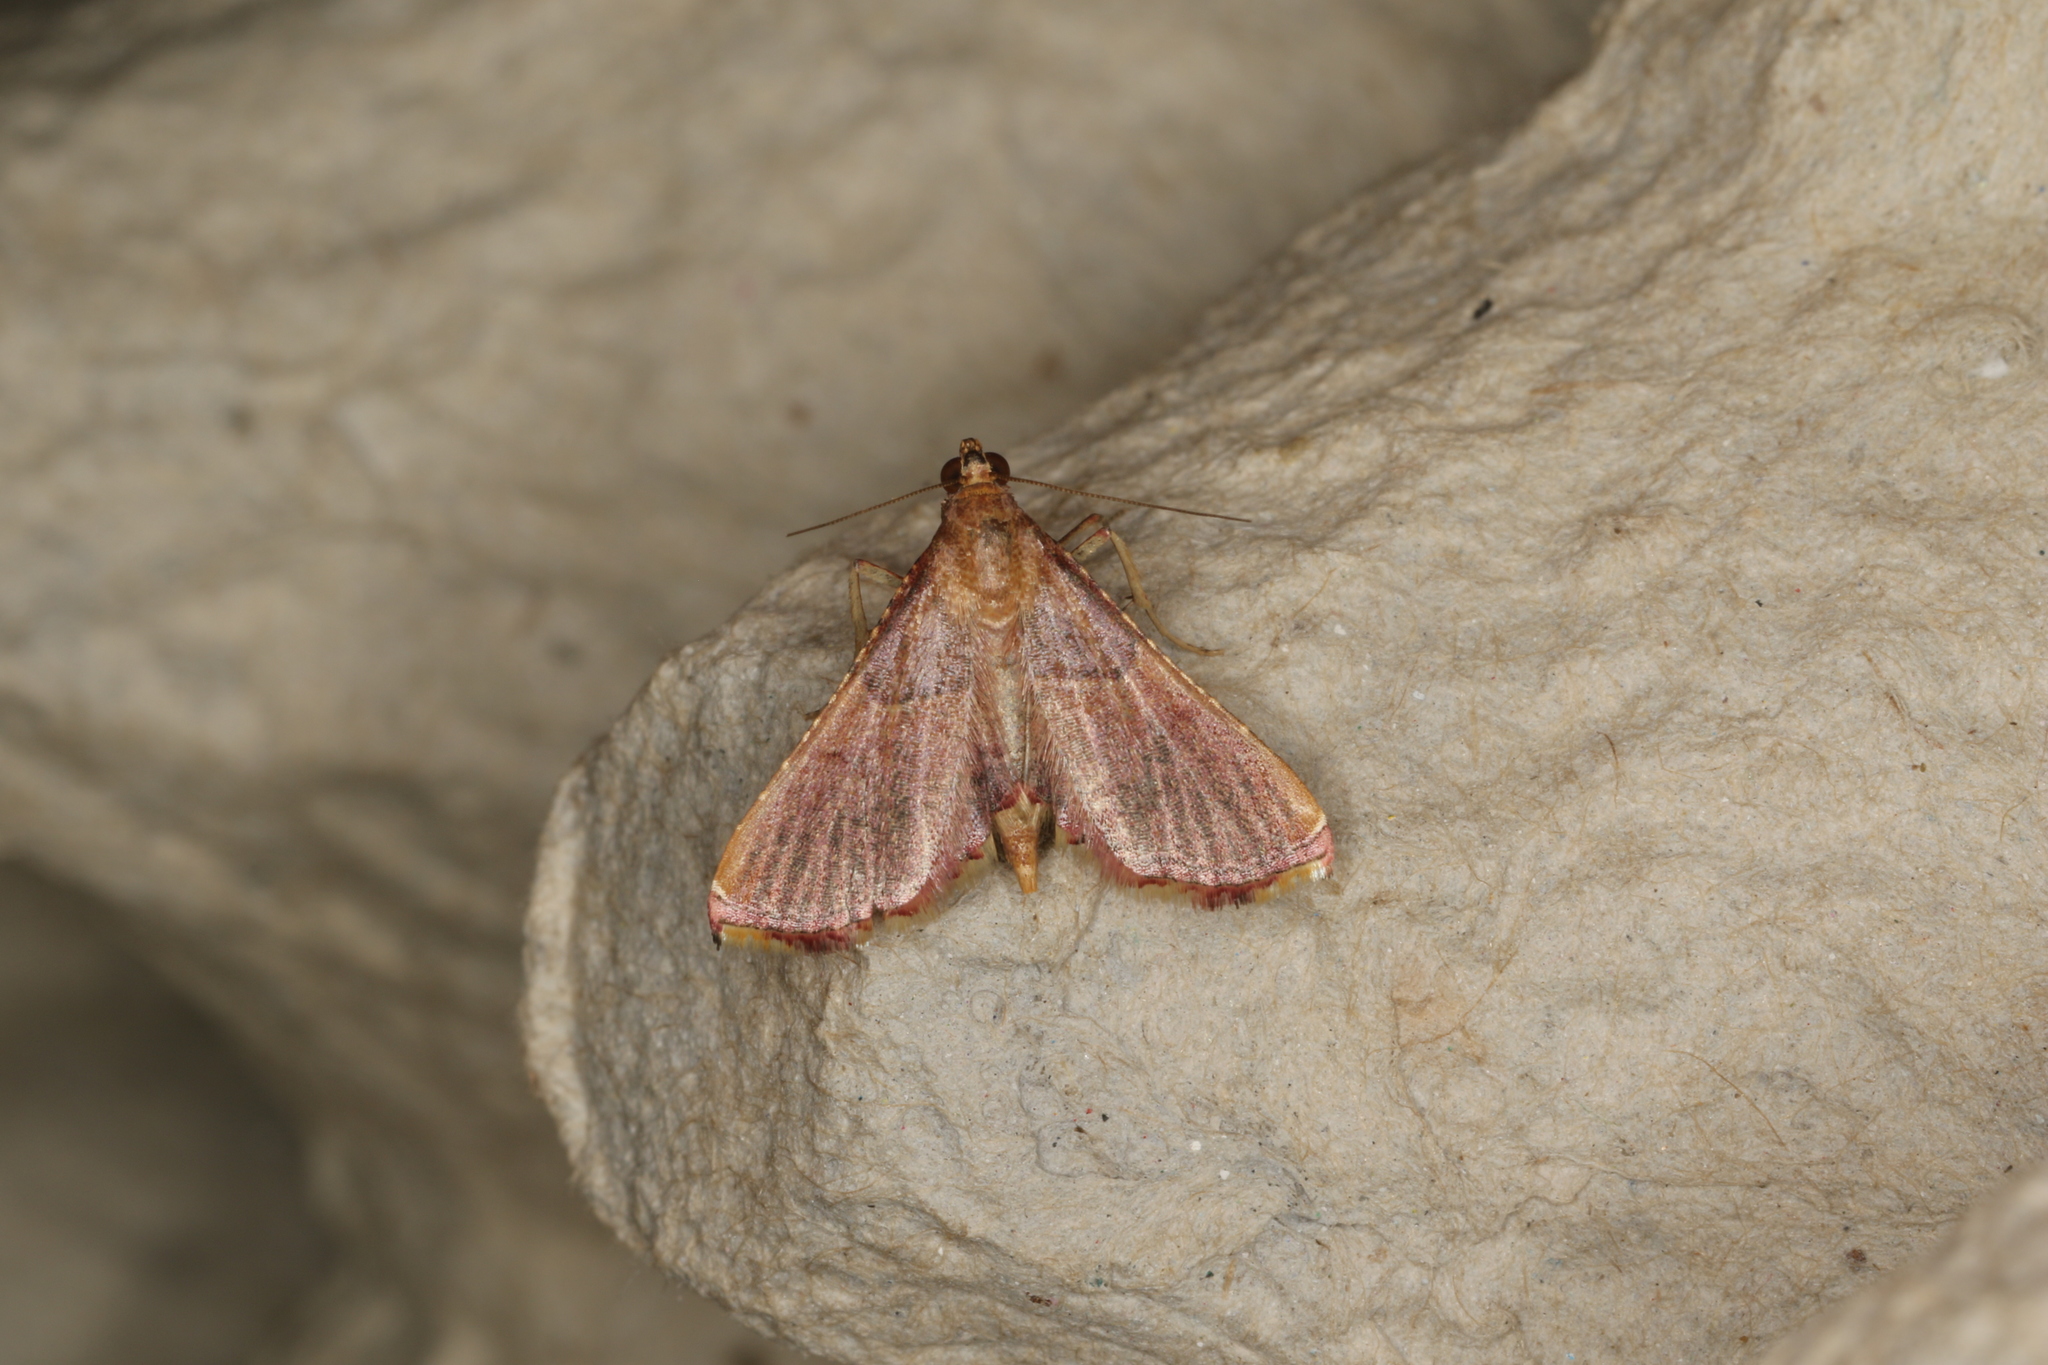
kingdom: Animalia
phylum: Arthropoda
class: Insecta
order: Lepidoptera
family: Pyralidae
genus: Endotricha
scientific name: Endotricha mesenterialis
